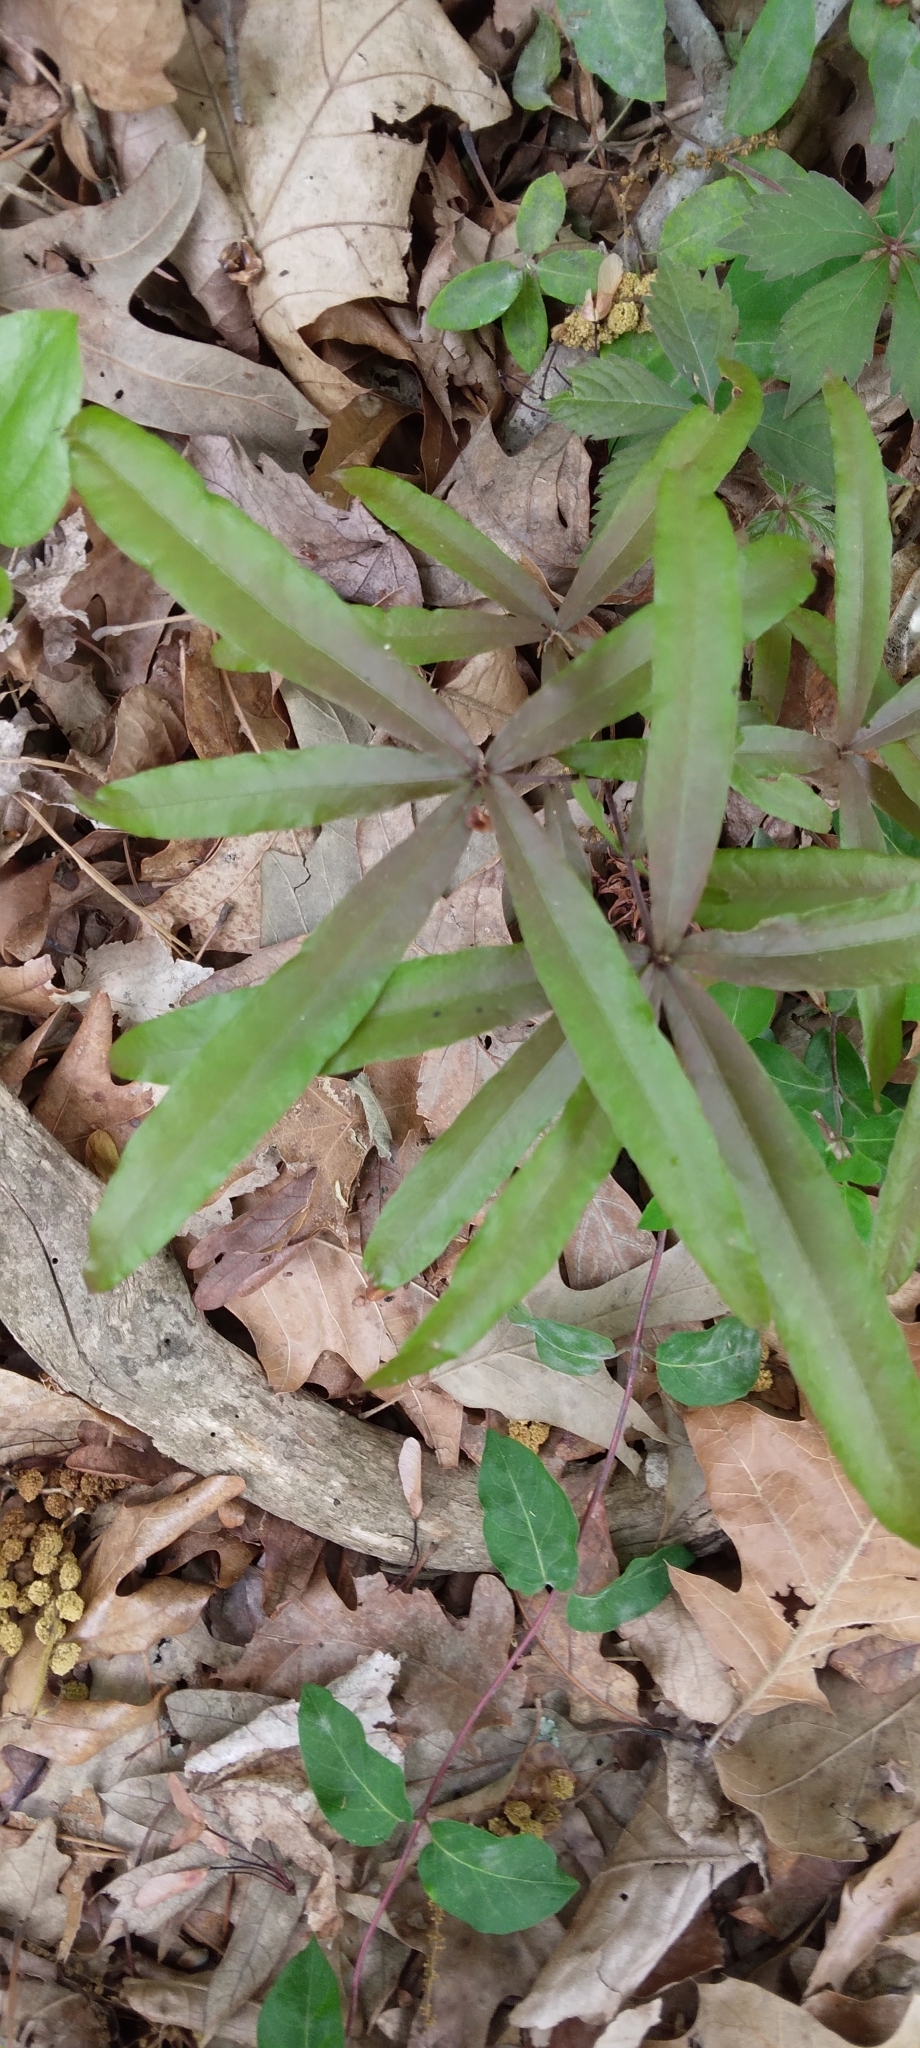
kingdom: Plantae
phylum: Tracheophyta
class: Magnoliopsida
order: Fagales
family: Fagaceae
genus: Quercus
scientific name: Quercus phellos
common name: Willow oak
